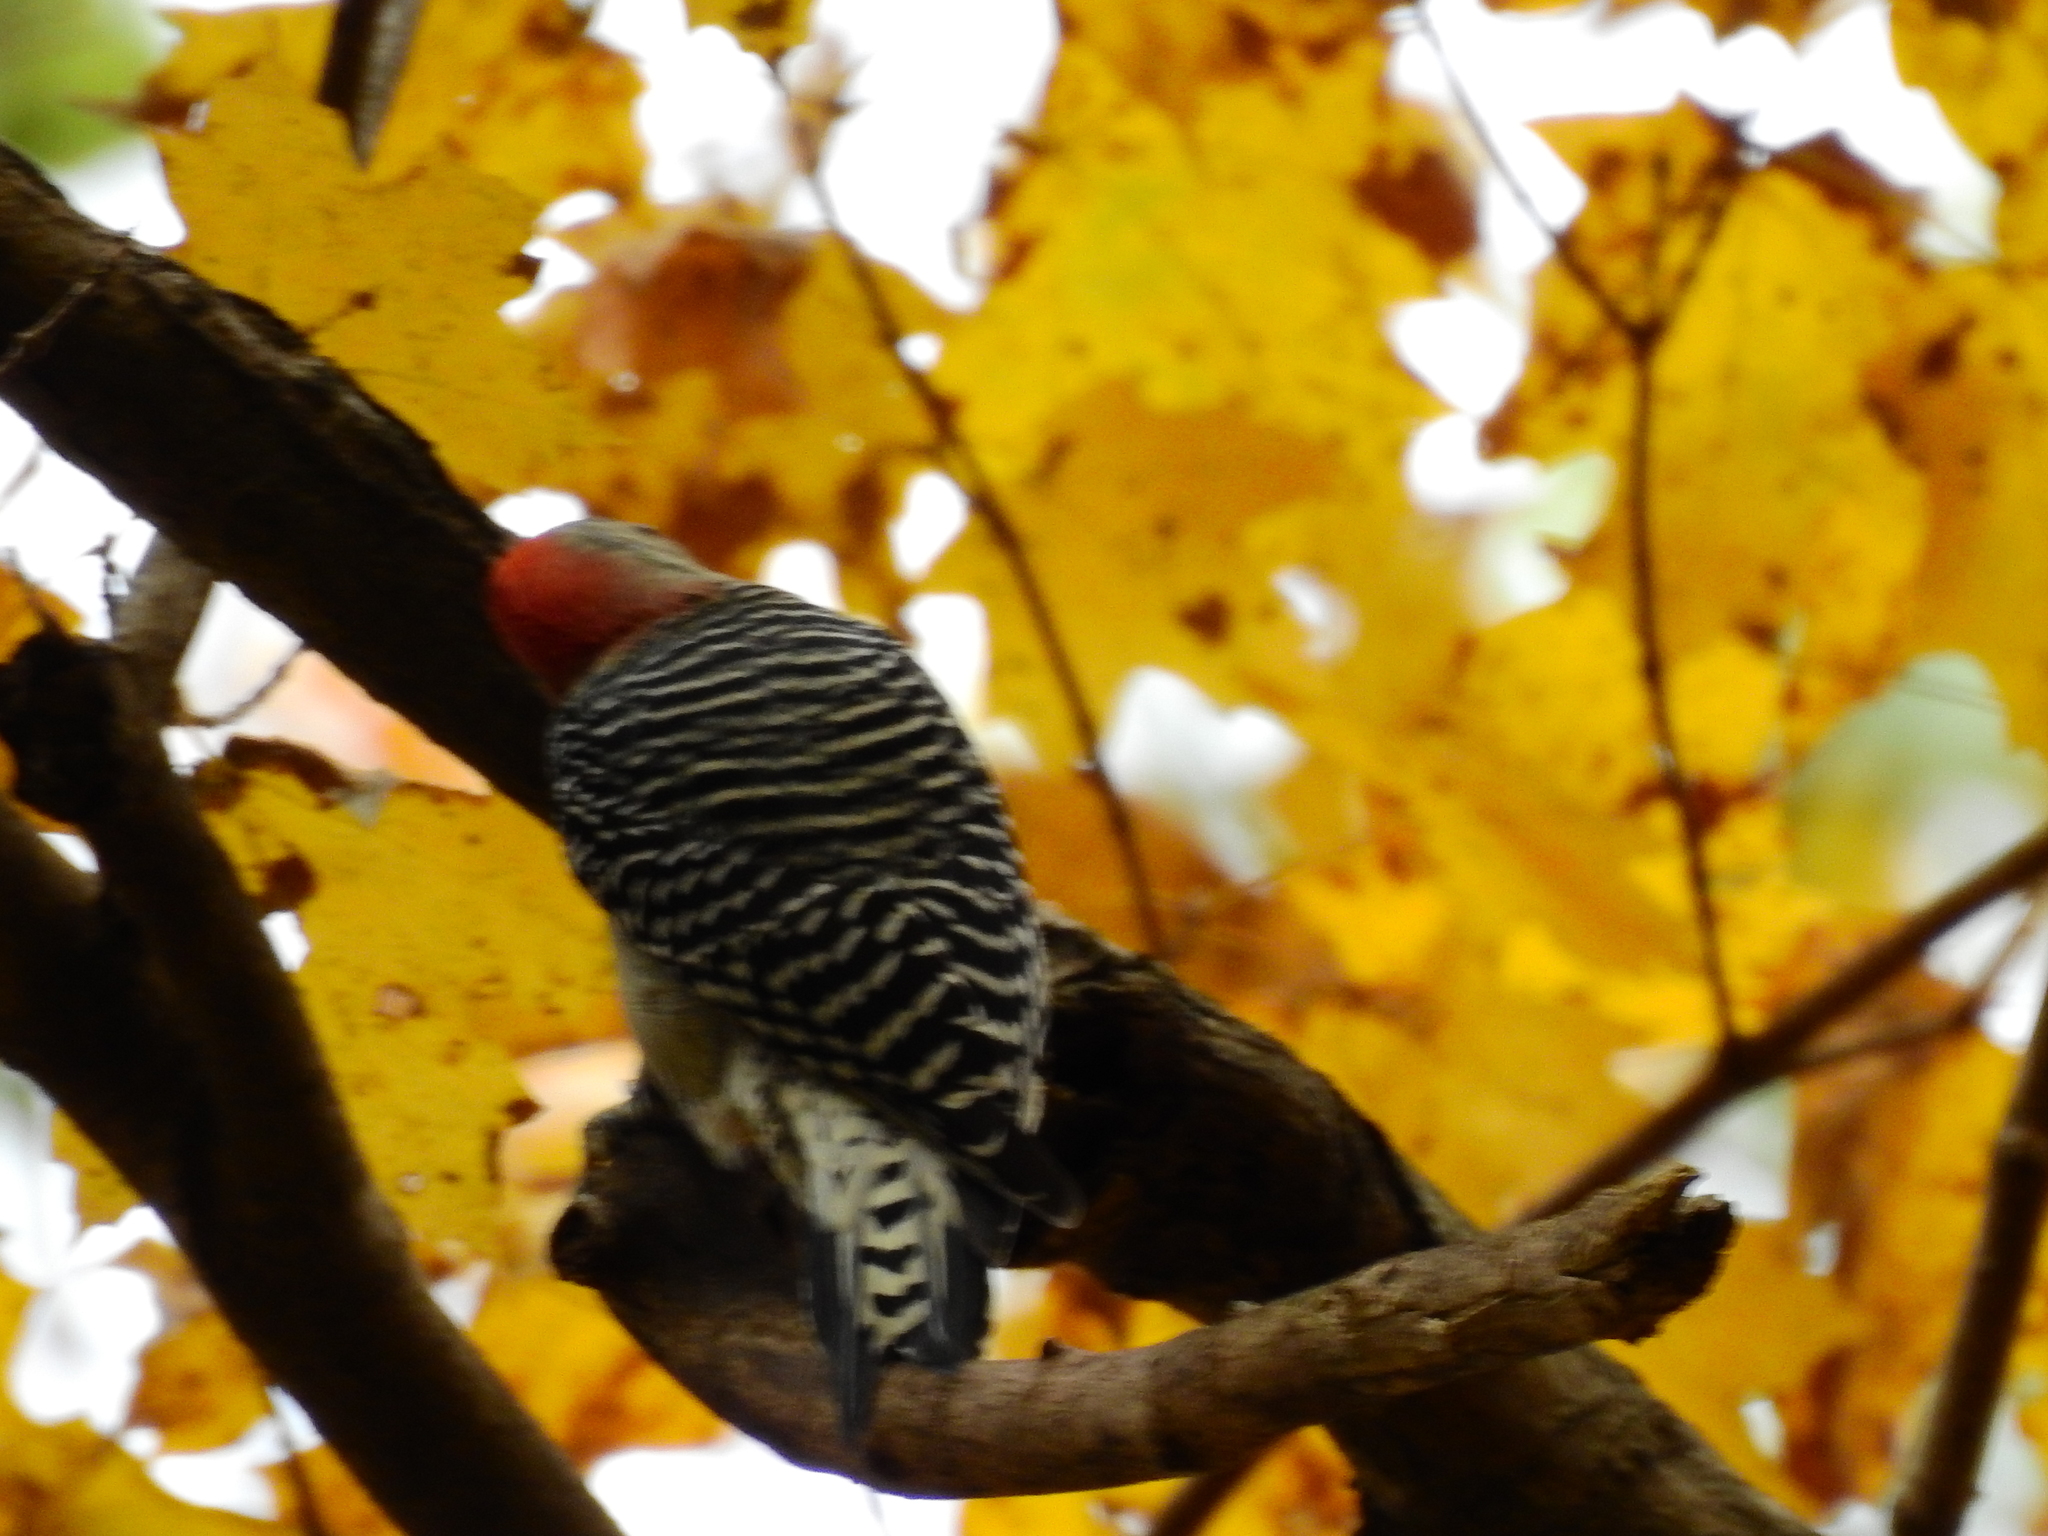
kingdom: Animalia
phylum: Chordata
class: Aves
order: Piciformes
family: Picidae
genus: Melanerpes
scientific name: Melanerpes carolinus
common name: Red-bellied woodpecker
